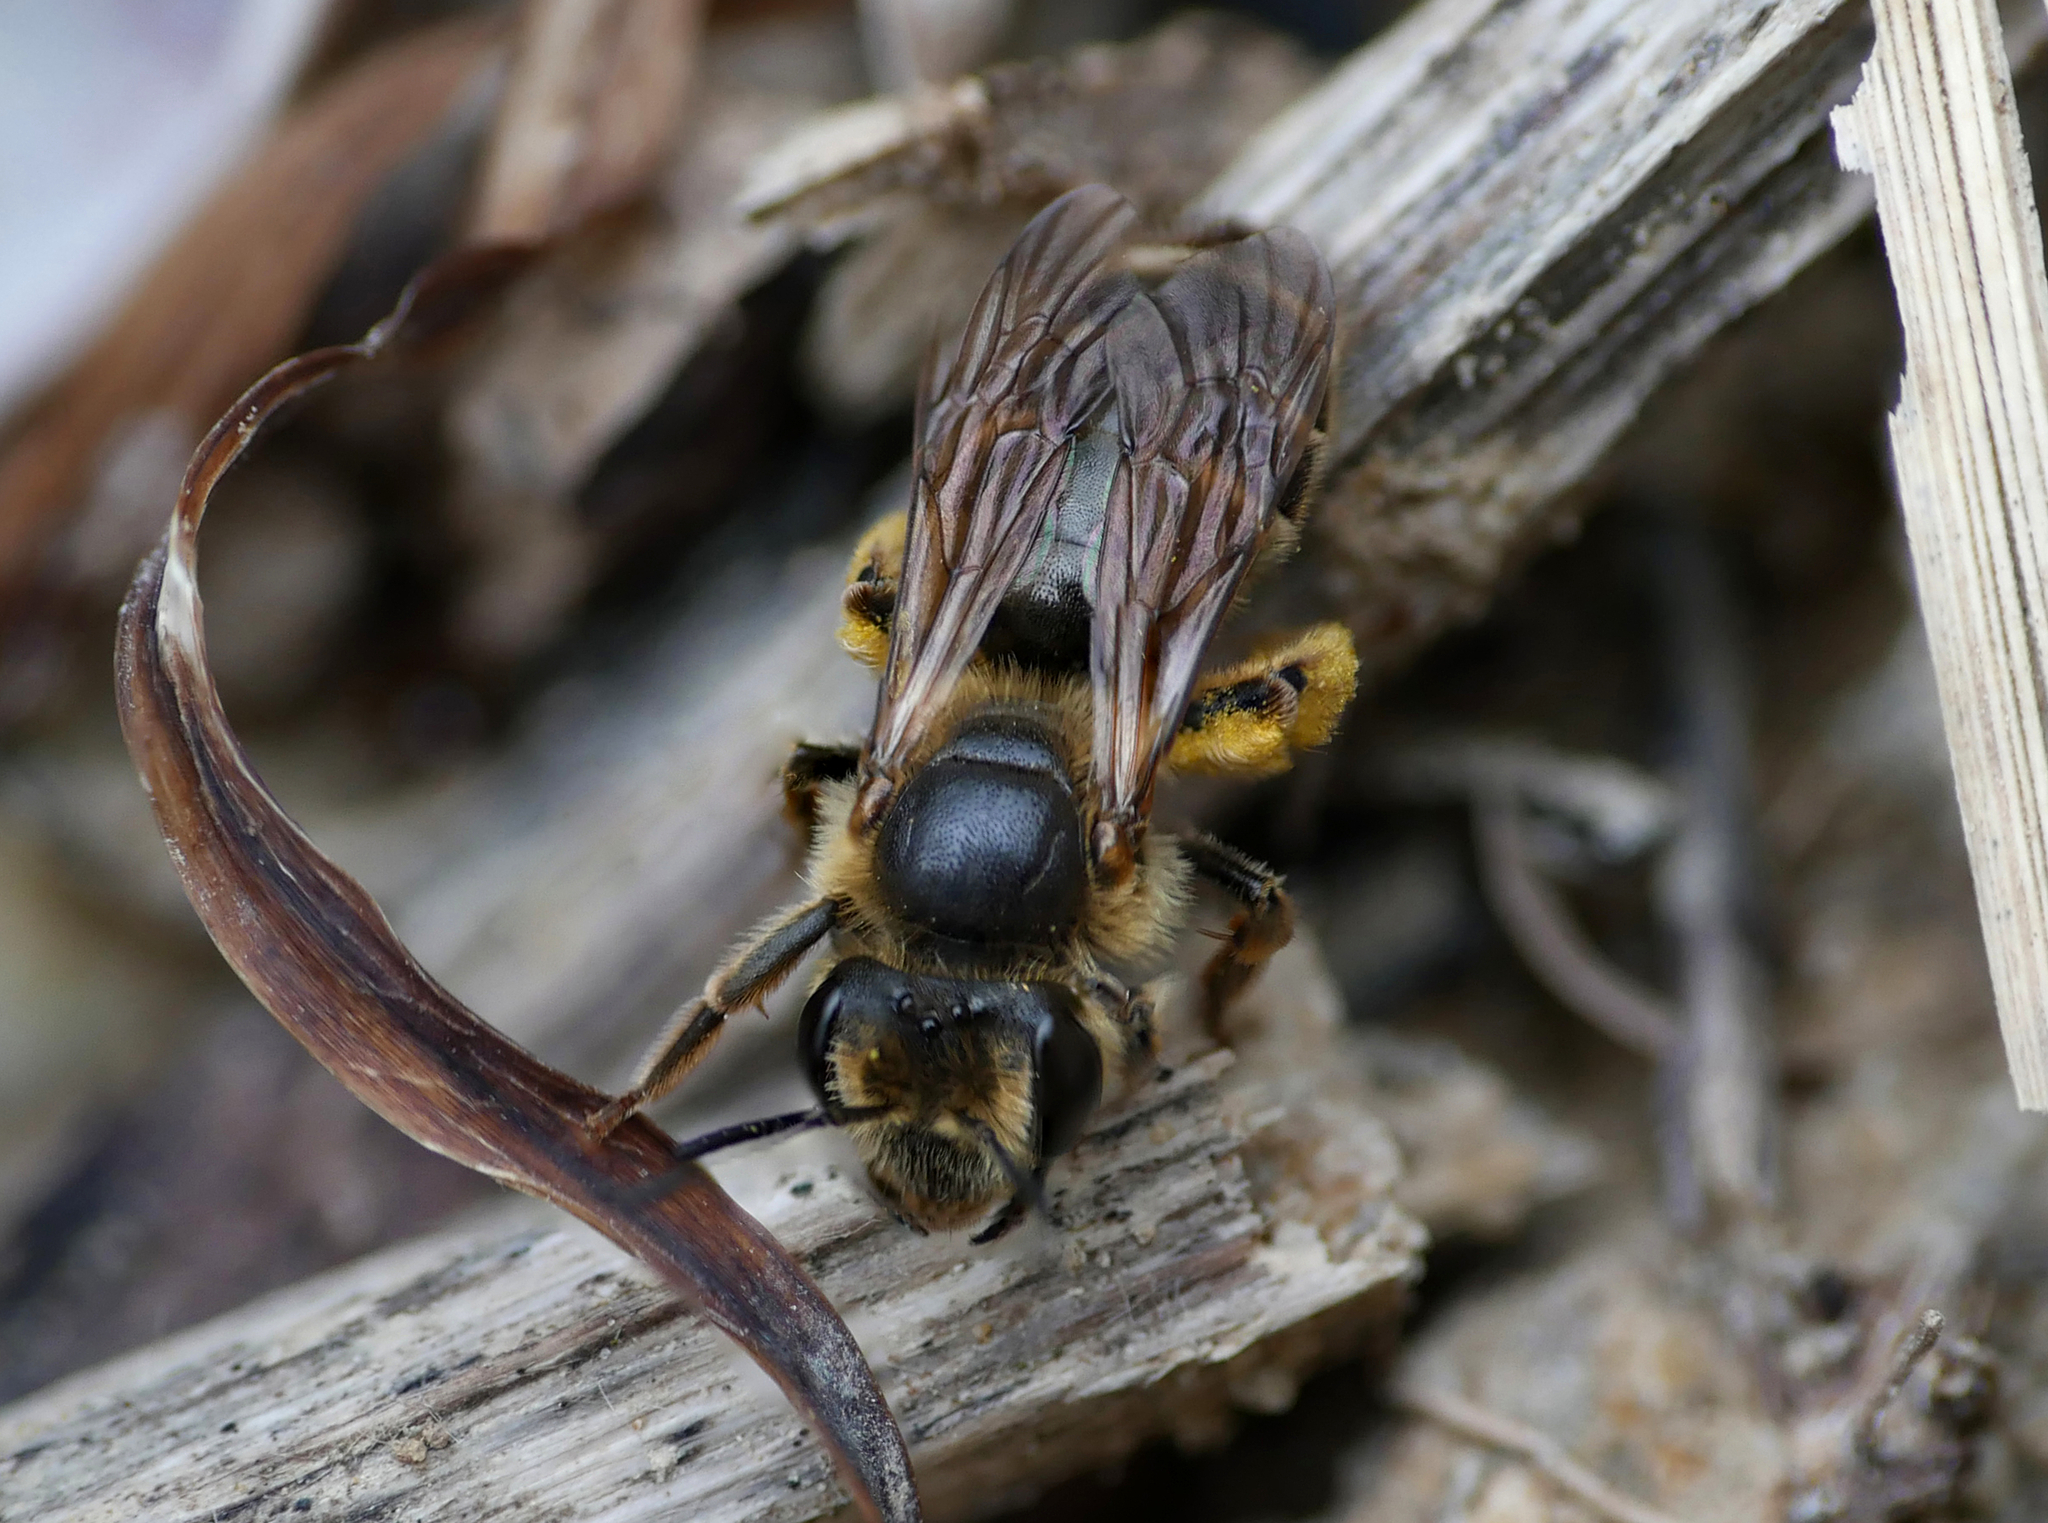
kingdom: Animalia
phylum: Arthropoda
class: Insecta
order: Hymenoptera
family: Andrenidae
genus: Andrena
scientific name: Andrena labialis
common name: Large meadow mining bee
